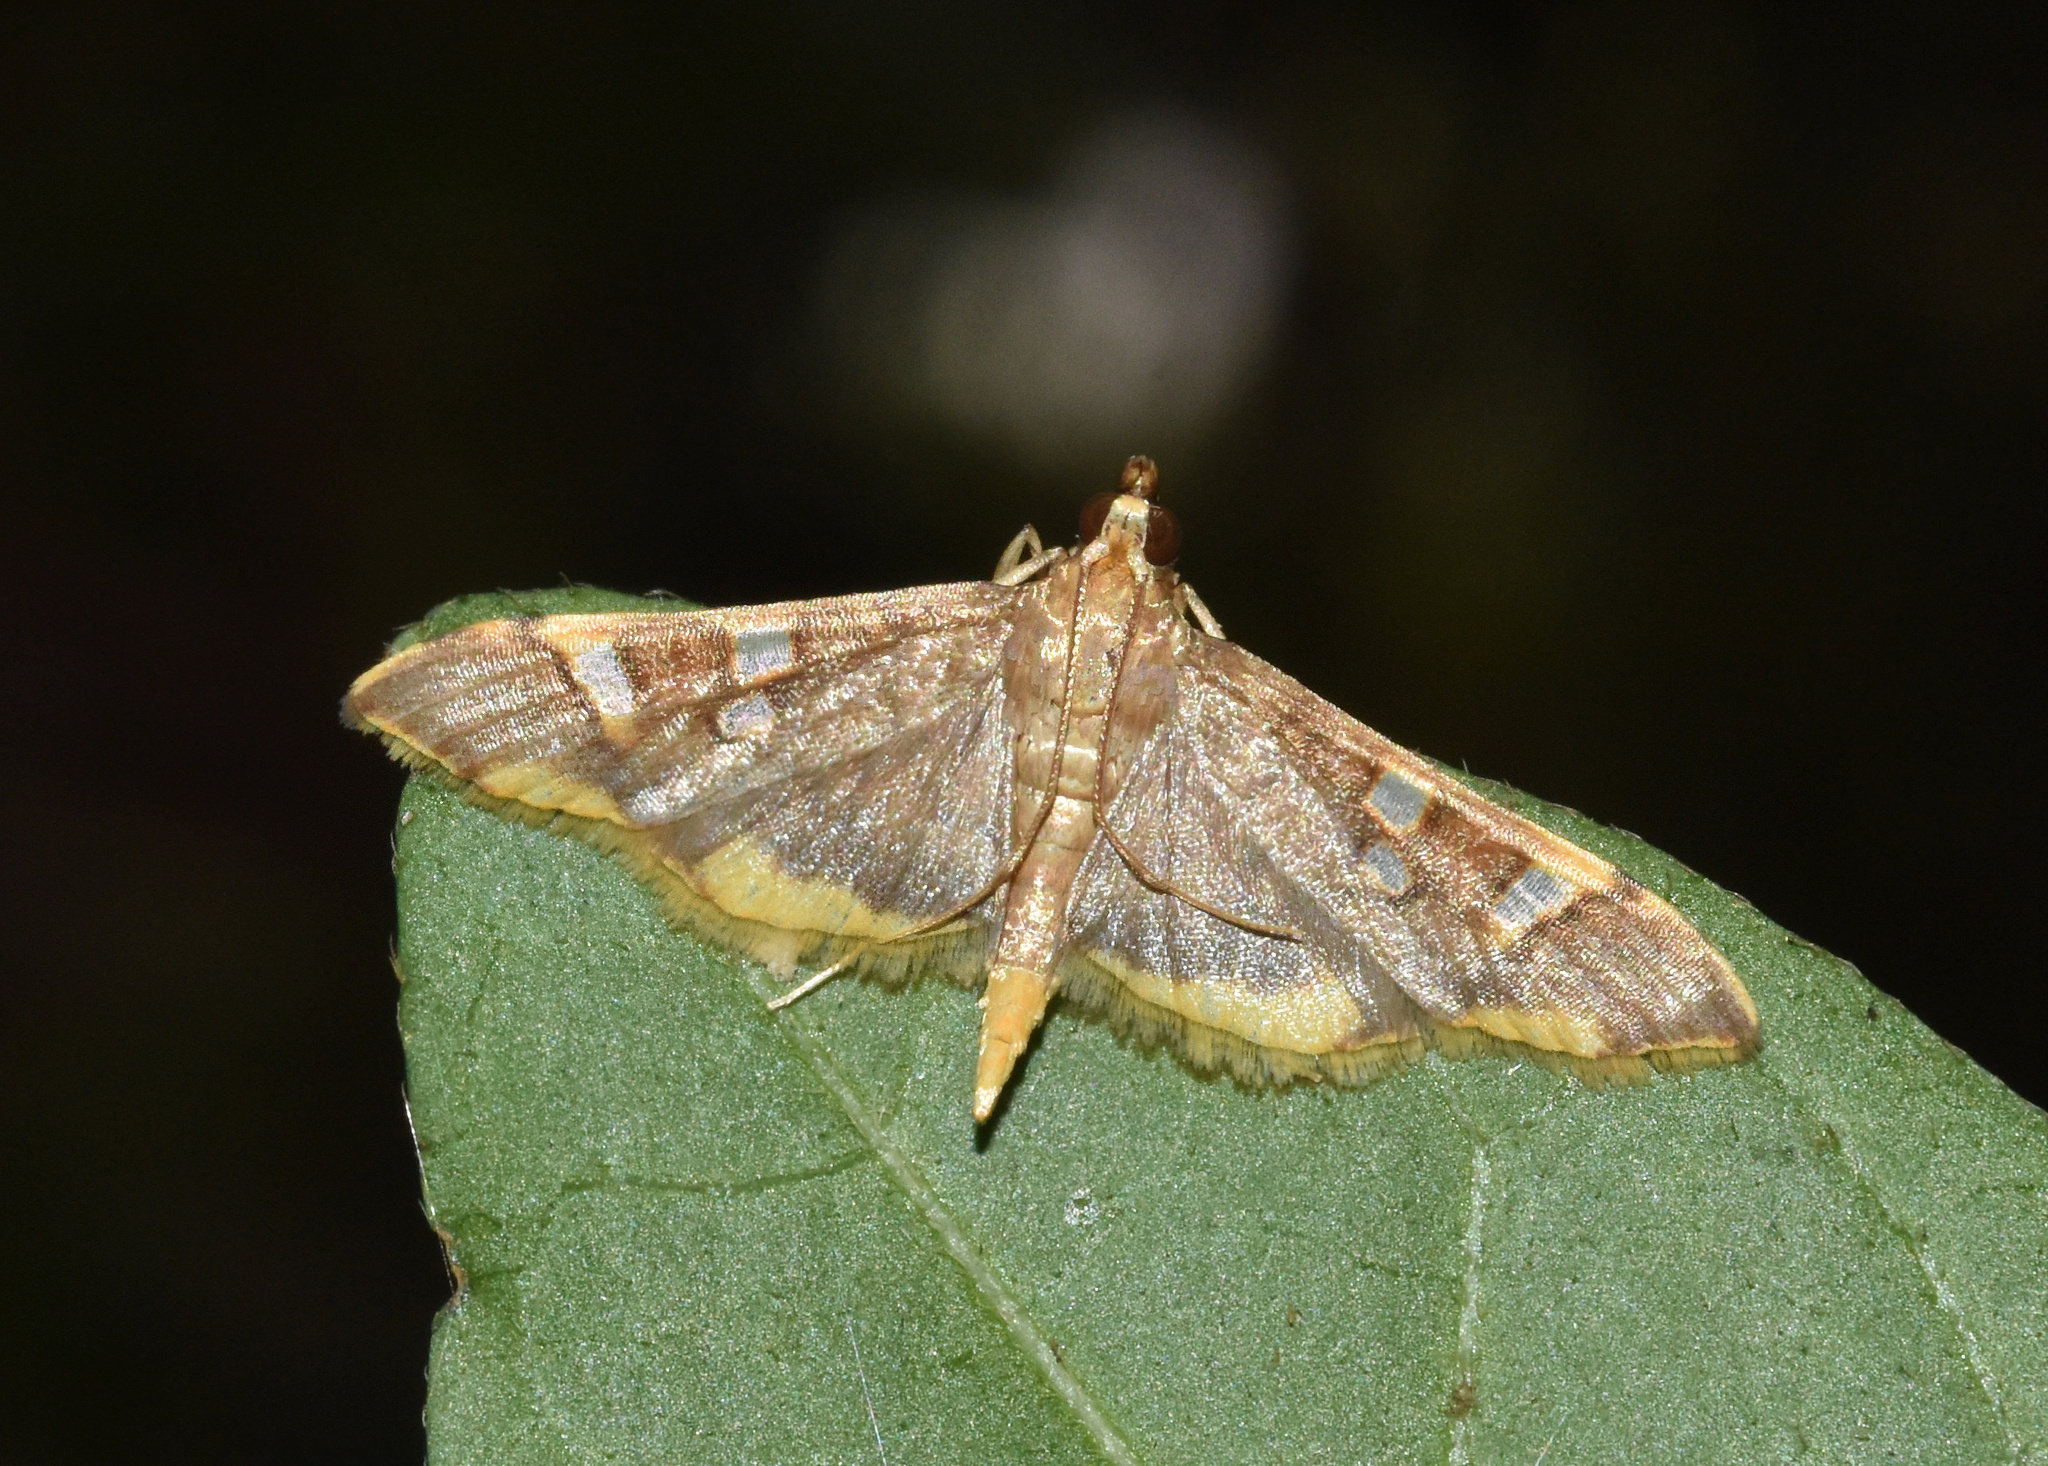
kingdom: Animalia
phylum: Arthropoda
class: Insecta
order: Lepidoptera
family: Crambidae
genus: Prophantis
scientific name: Prophantis smaragdina
